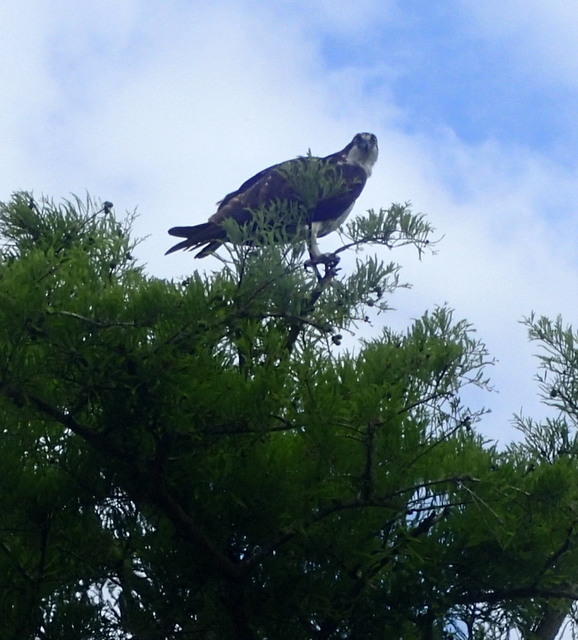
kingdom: Animalia
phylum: Chordata
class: Aves
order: Accipitriformes
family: Pandionidae
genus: Pandion
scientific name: Pandion haliaetus
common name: Osprey
